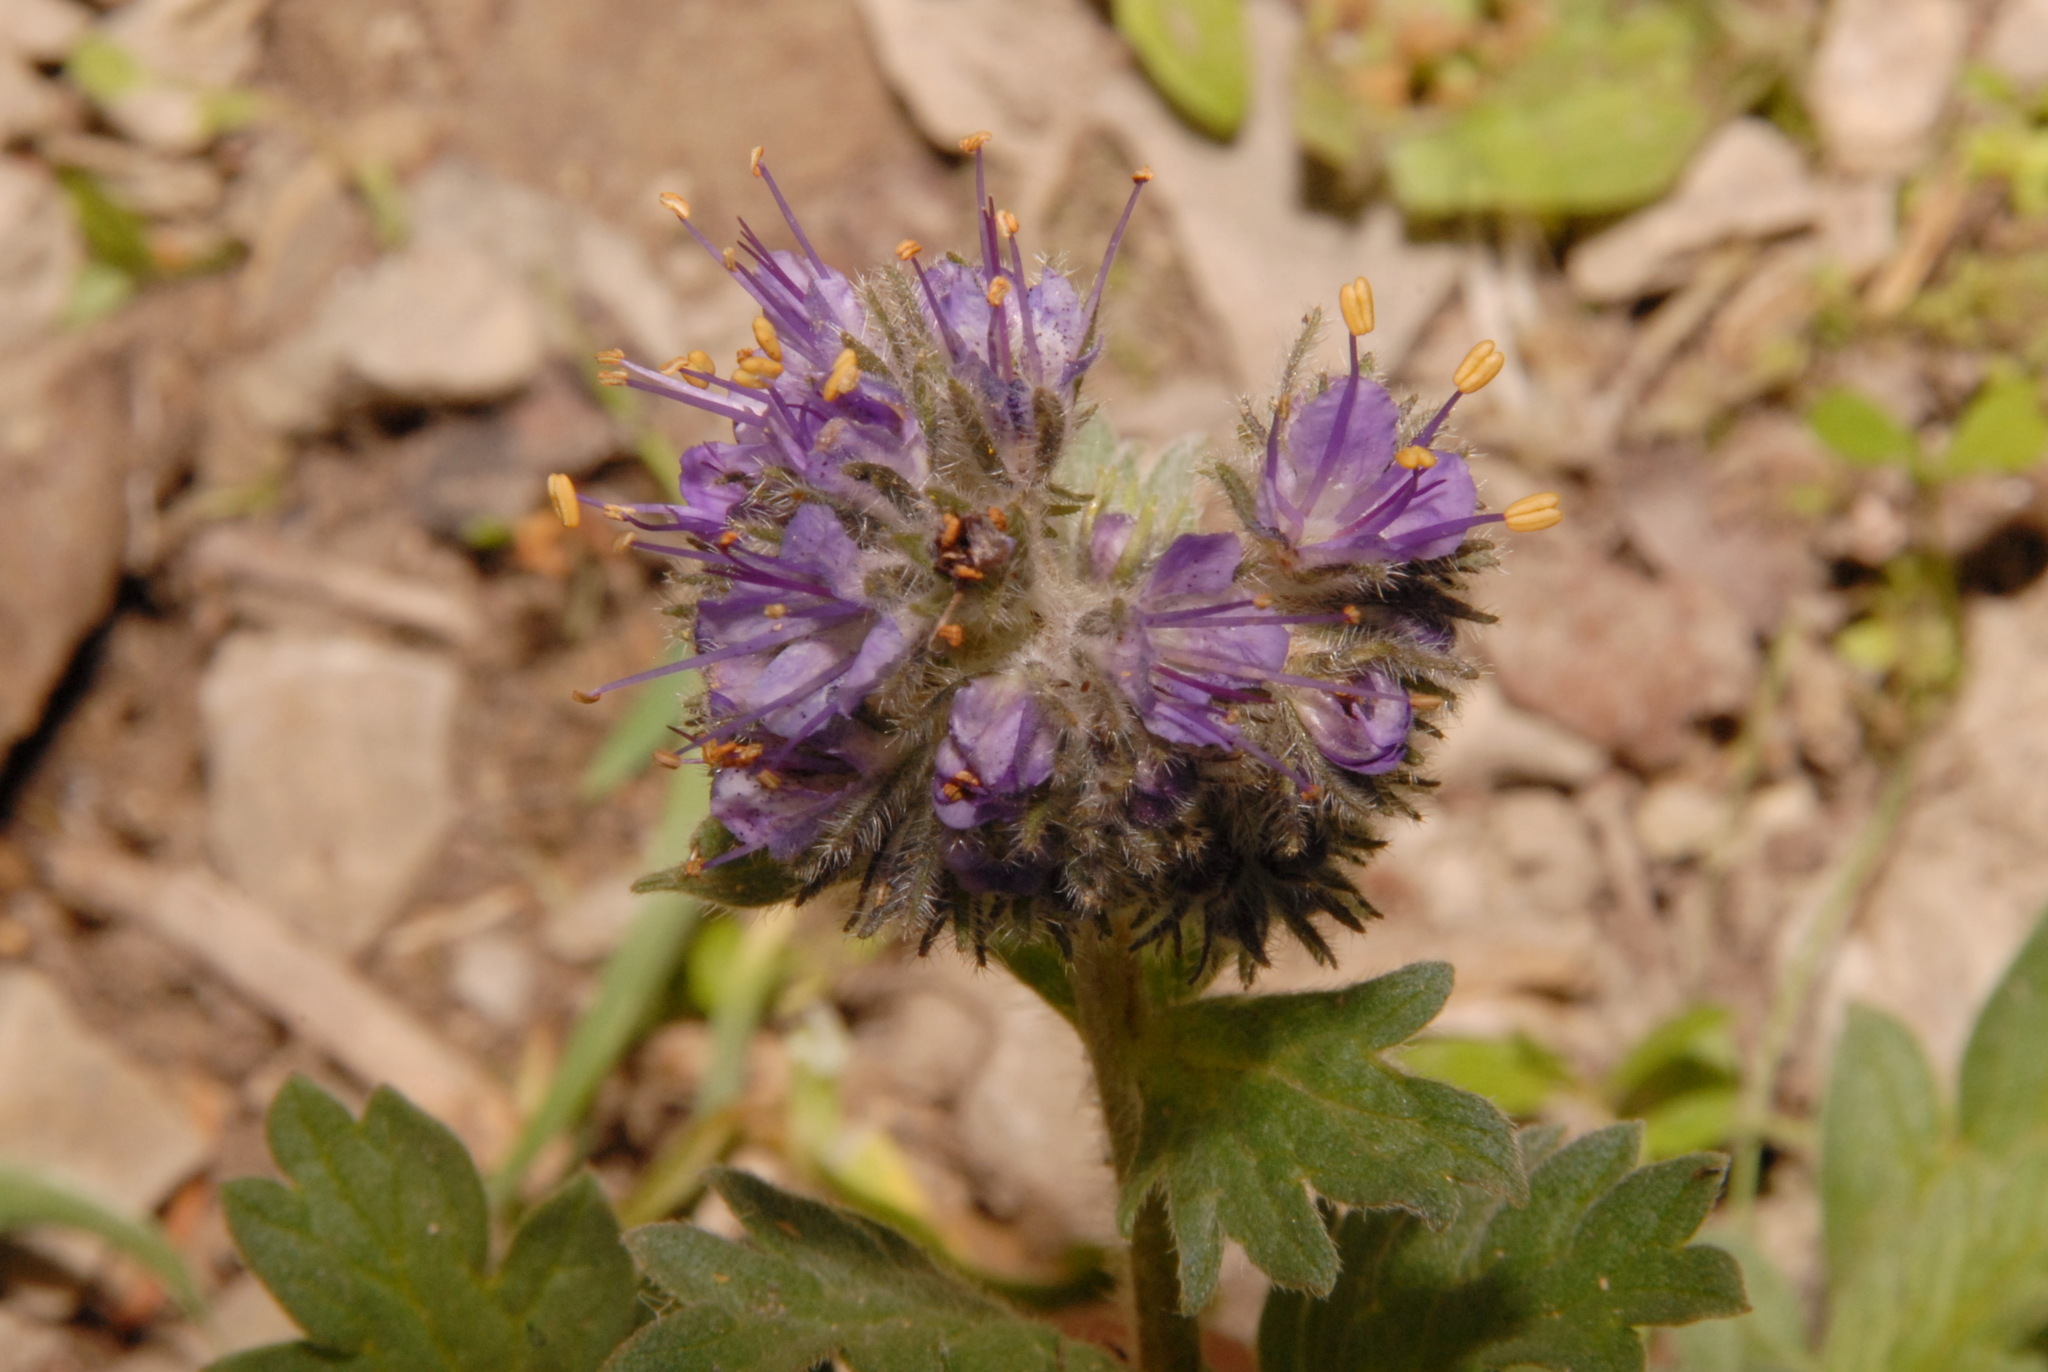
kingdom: Plantae
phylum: Tracheophyta
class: Magnoliopsida
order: Boraginales
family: Hydrophyllaceae
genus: Phacelia
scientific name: Phacelia sericea
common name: Silky phacelia
